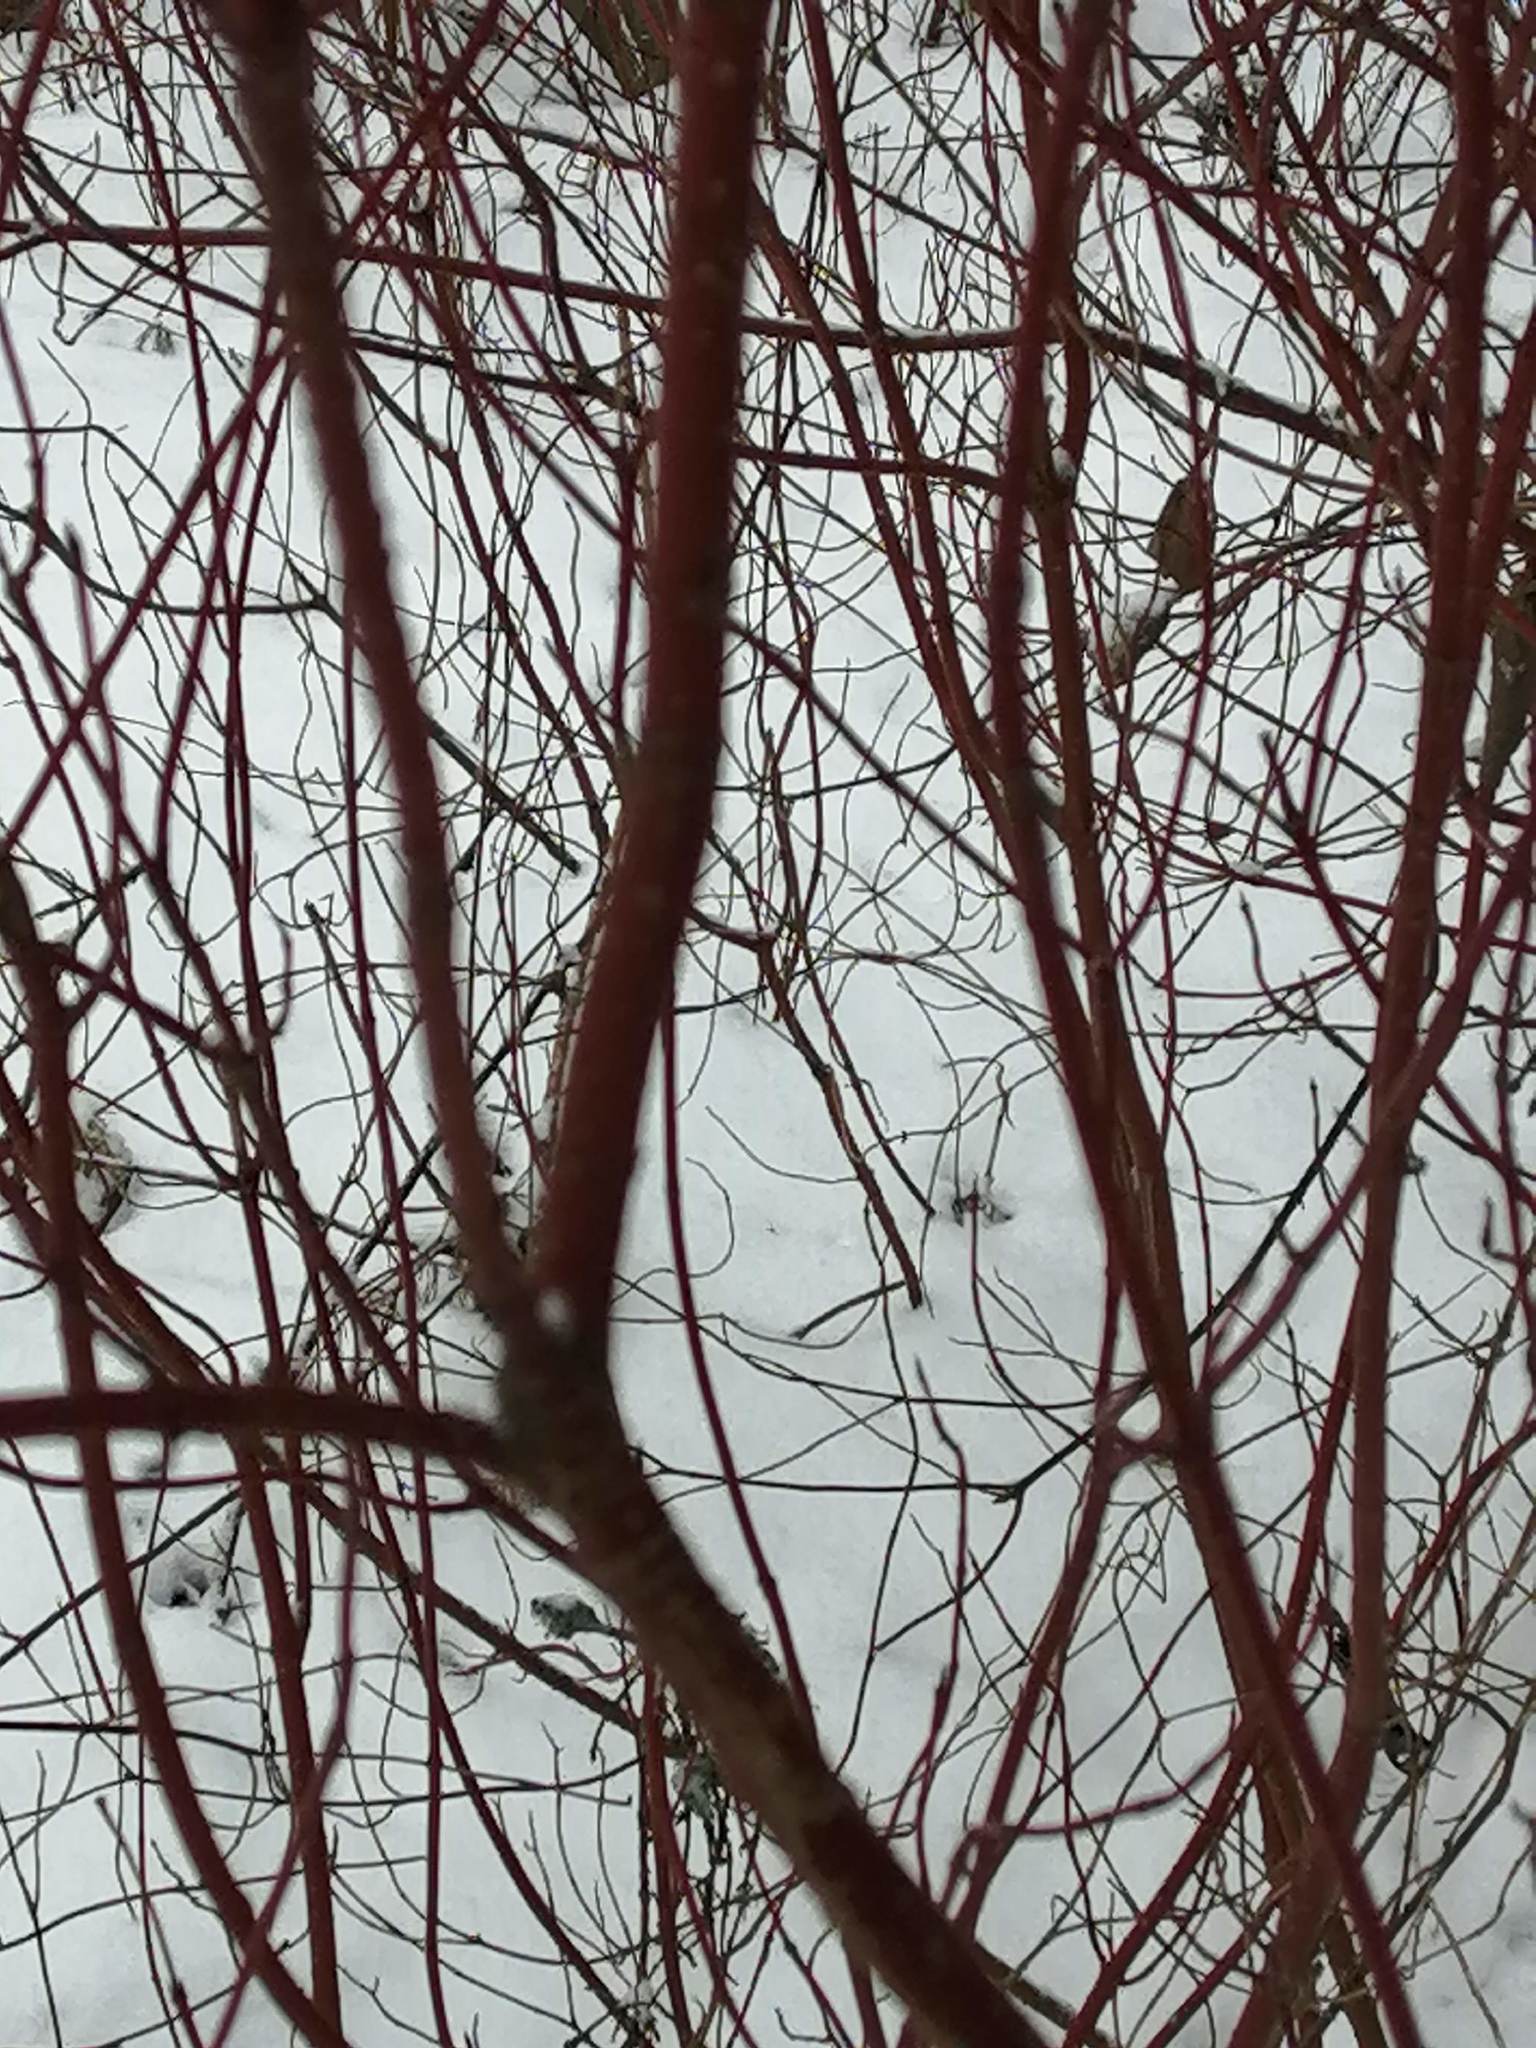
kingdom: Plantae
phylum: Tracheophyta
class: Magnoliopsida
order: Cornales
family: Cornaceae
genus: Cornus
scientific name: Cornus alba
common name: White dogwood
